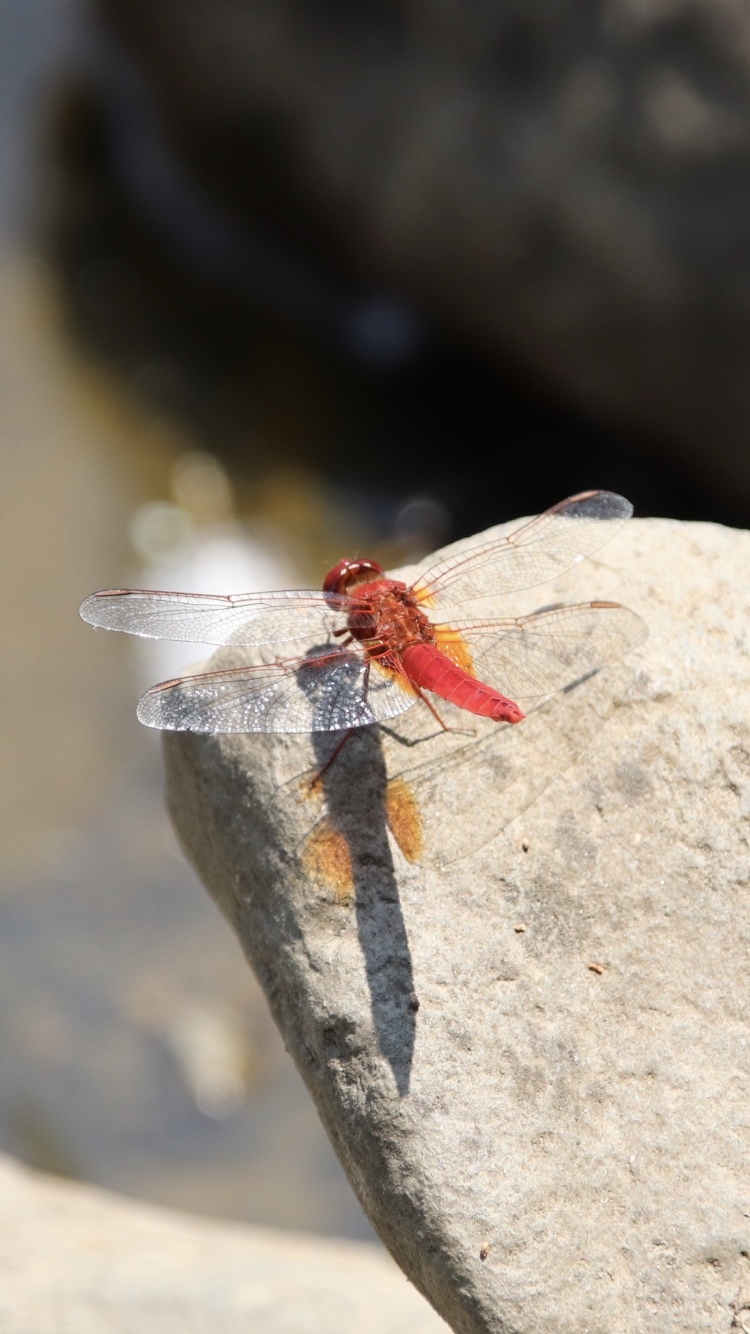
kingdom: Animalia
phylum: Arthropoda
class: Insecta
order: Odonata
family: Libellulidae
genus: Crocothemis
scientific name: Crocothemis erythraea
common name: Scarlet dragonfly
